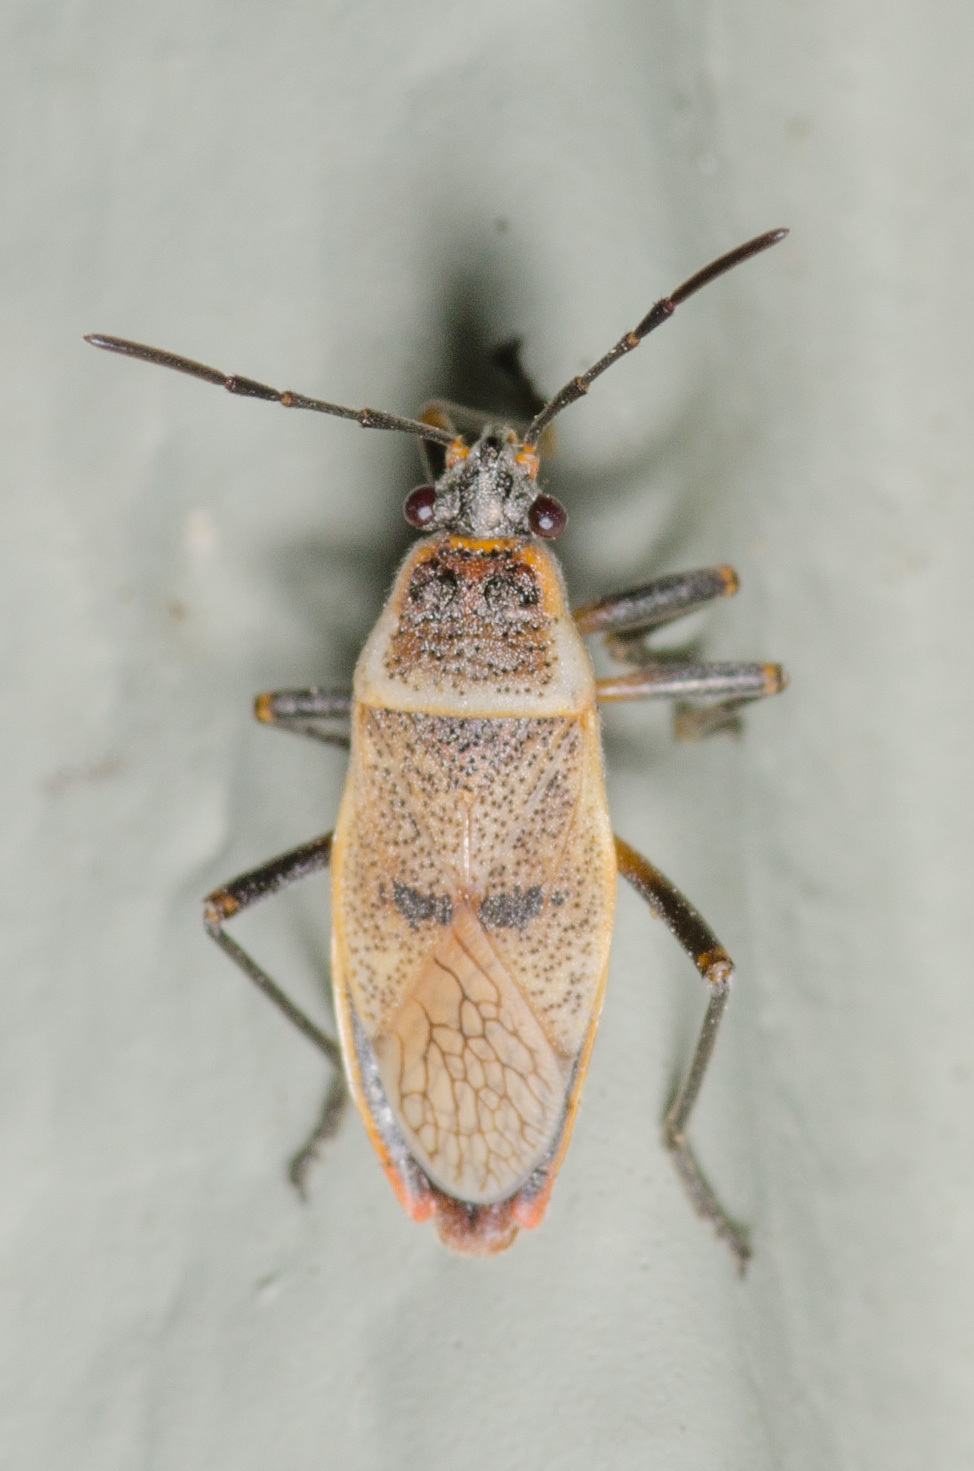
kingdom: Animalia
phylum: Arthropoda
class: Insecta
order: Hemiptera
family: Largidae
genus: Largus
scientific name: Largus maculatus
